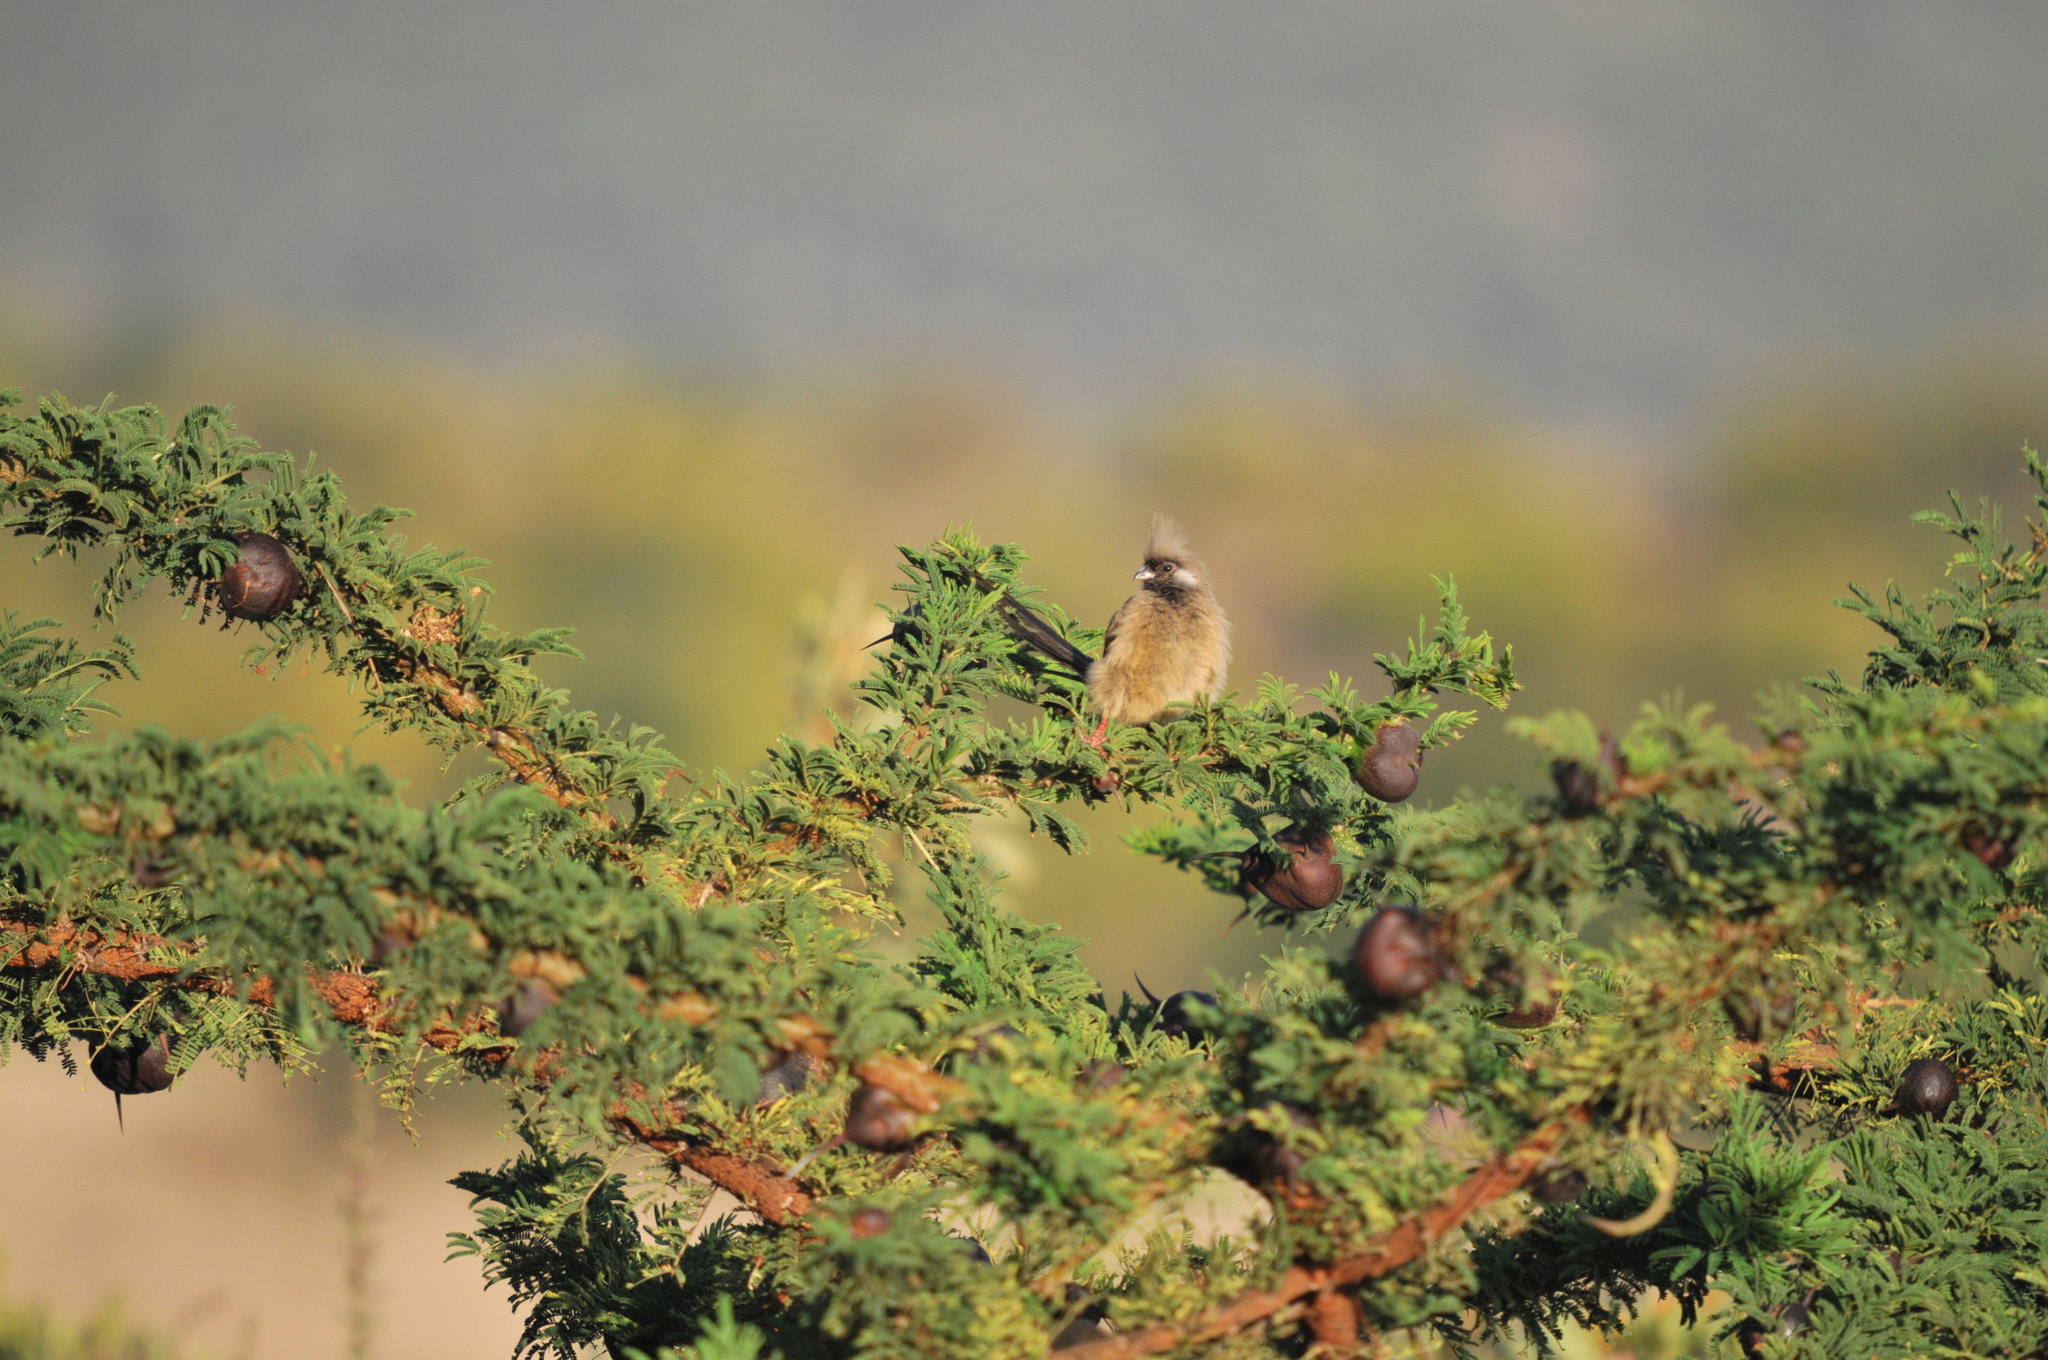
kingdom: Animalia
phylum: Chordata
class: Aves
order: Coliiformes
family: Coliidae
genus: Colius
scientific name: Colius striatus
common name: Speckled mousebird
